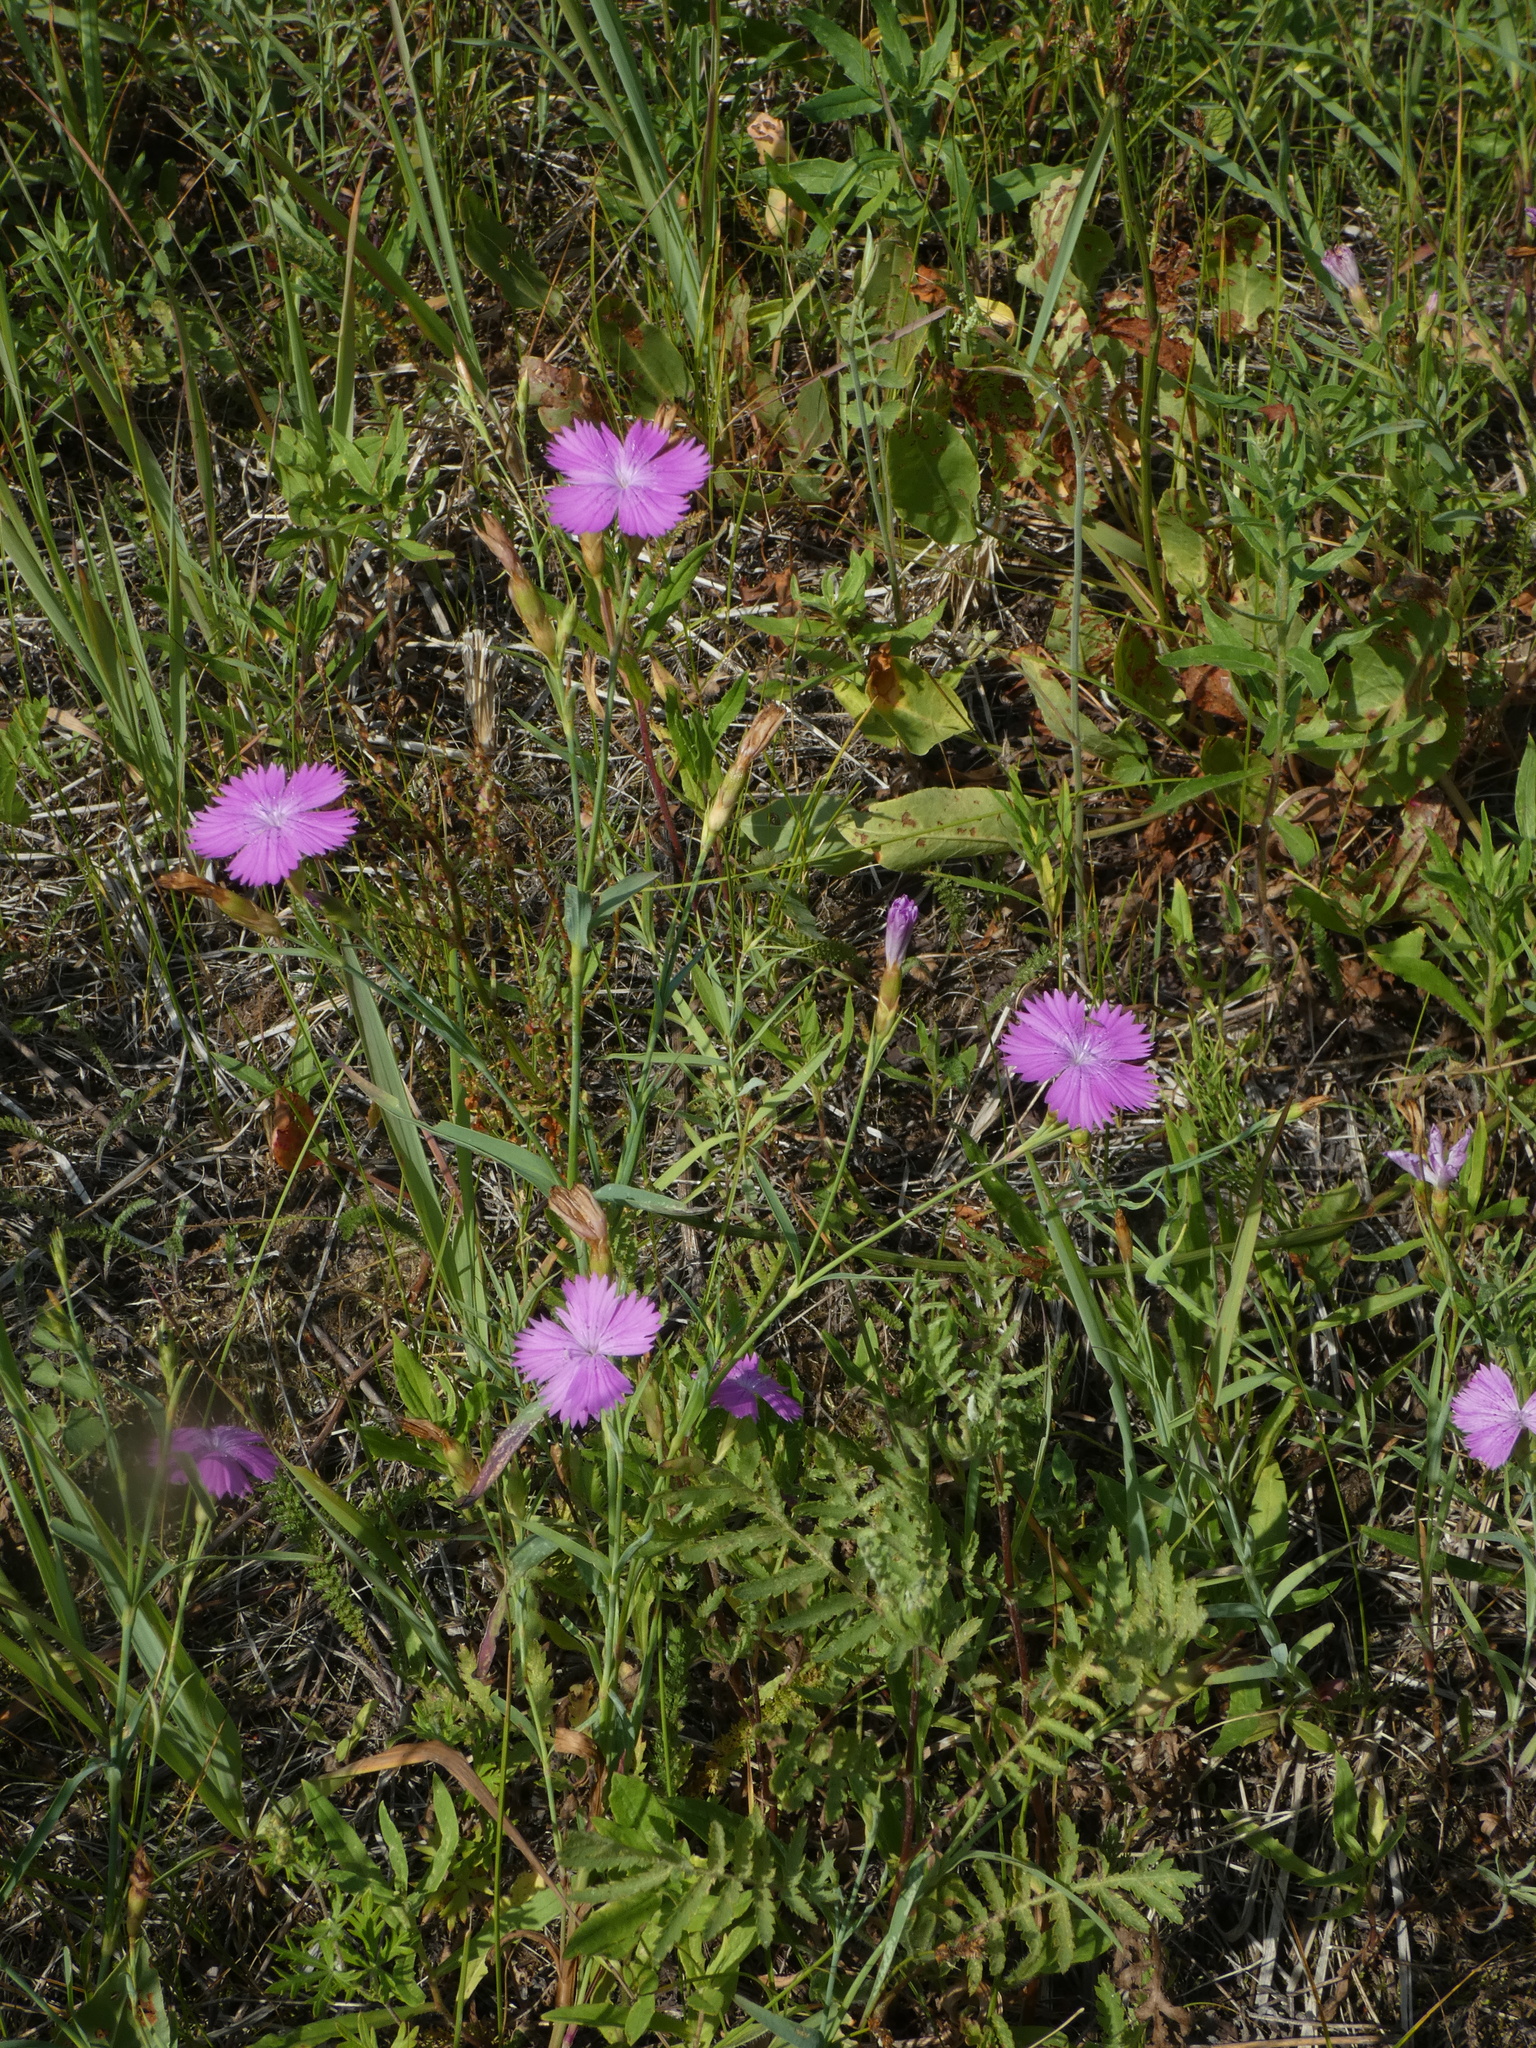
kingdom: Plantae
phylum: Tracheophyta
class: Magnoliopsida
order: Caryophyllales
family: Caryophyllaceae
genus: Dianthus
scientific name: Dianthus chinensis
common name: Rainbow pink
